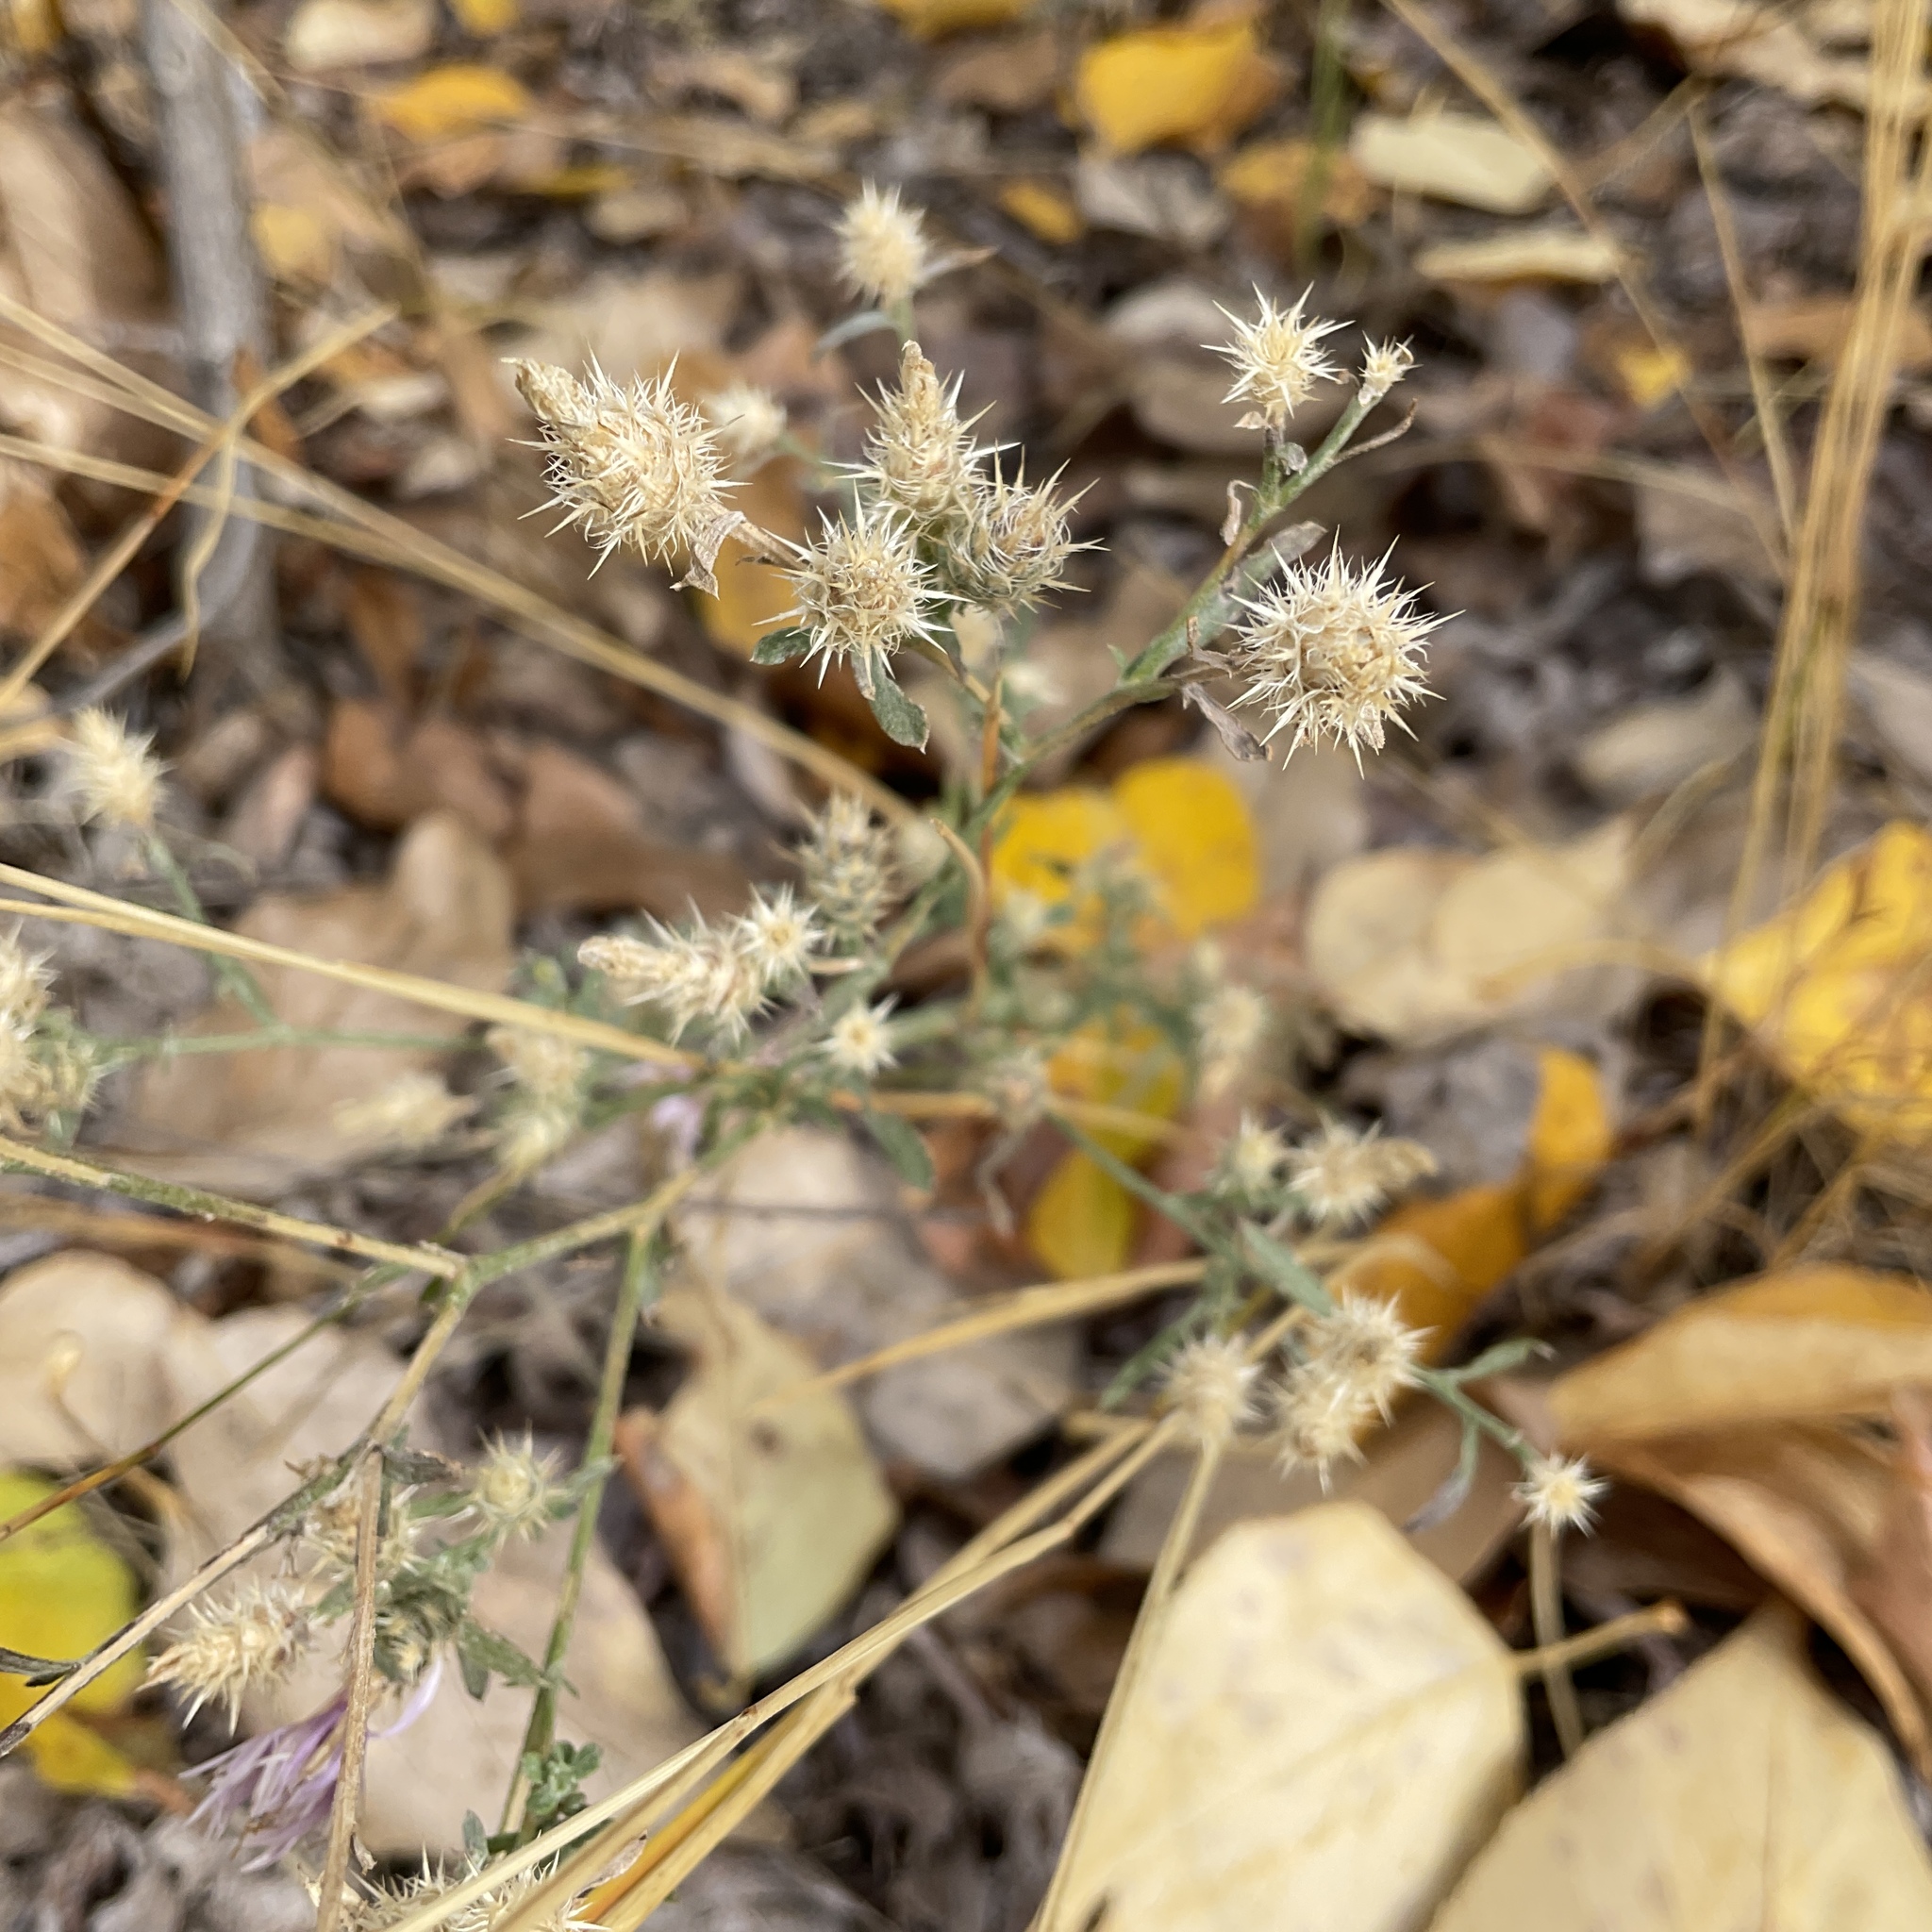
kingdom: Plantae
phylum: Tracheophyta
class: Magnoliopsida
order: Asterales
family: Asteraceae
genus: Centaurea
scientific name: Centaurea diffusa
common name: Diffuse knapweed
